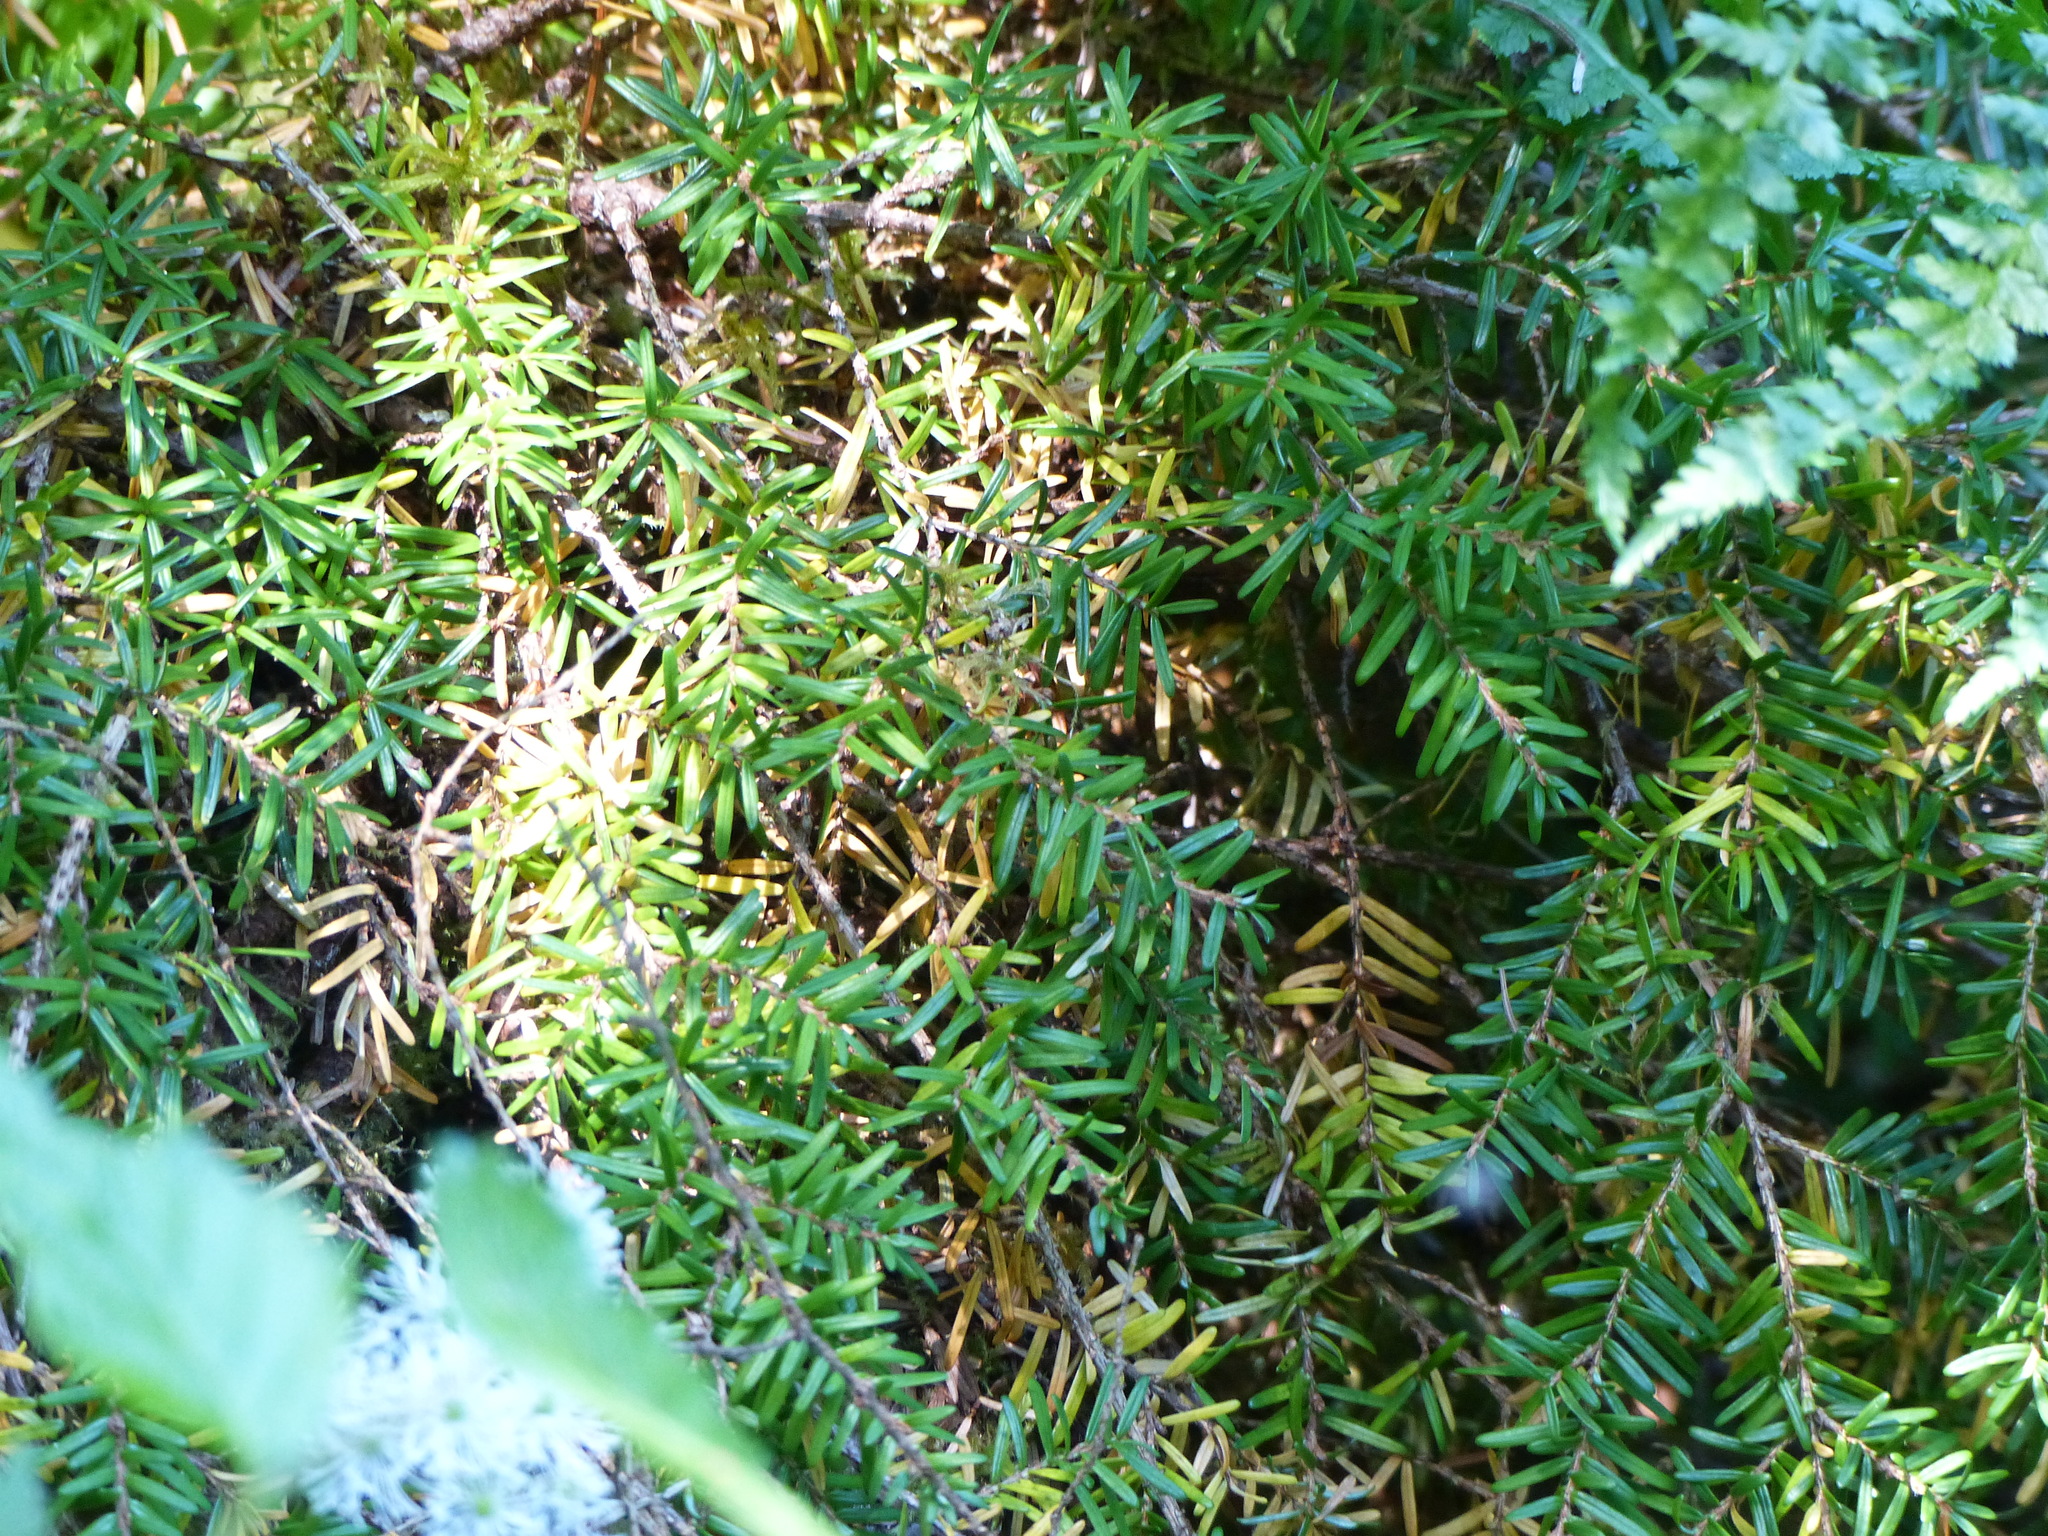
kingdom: Plantae
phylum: Tracheophyta
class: Pinopsida
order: Pinales
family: Pinaceae
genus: Tsuga
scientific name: Tsuga heterophylla
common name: Western hemlock
